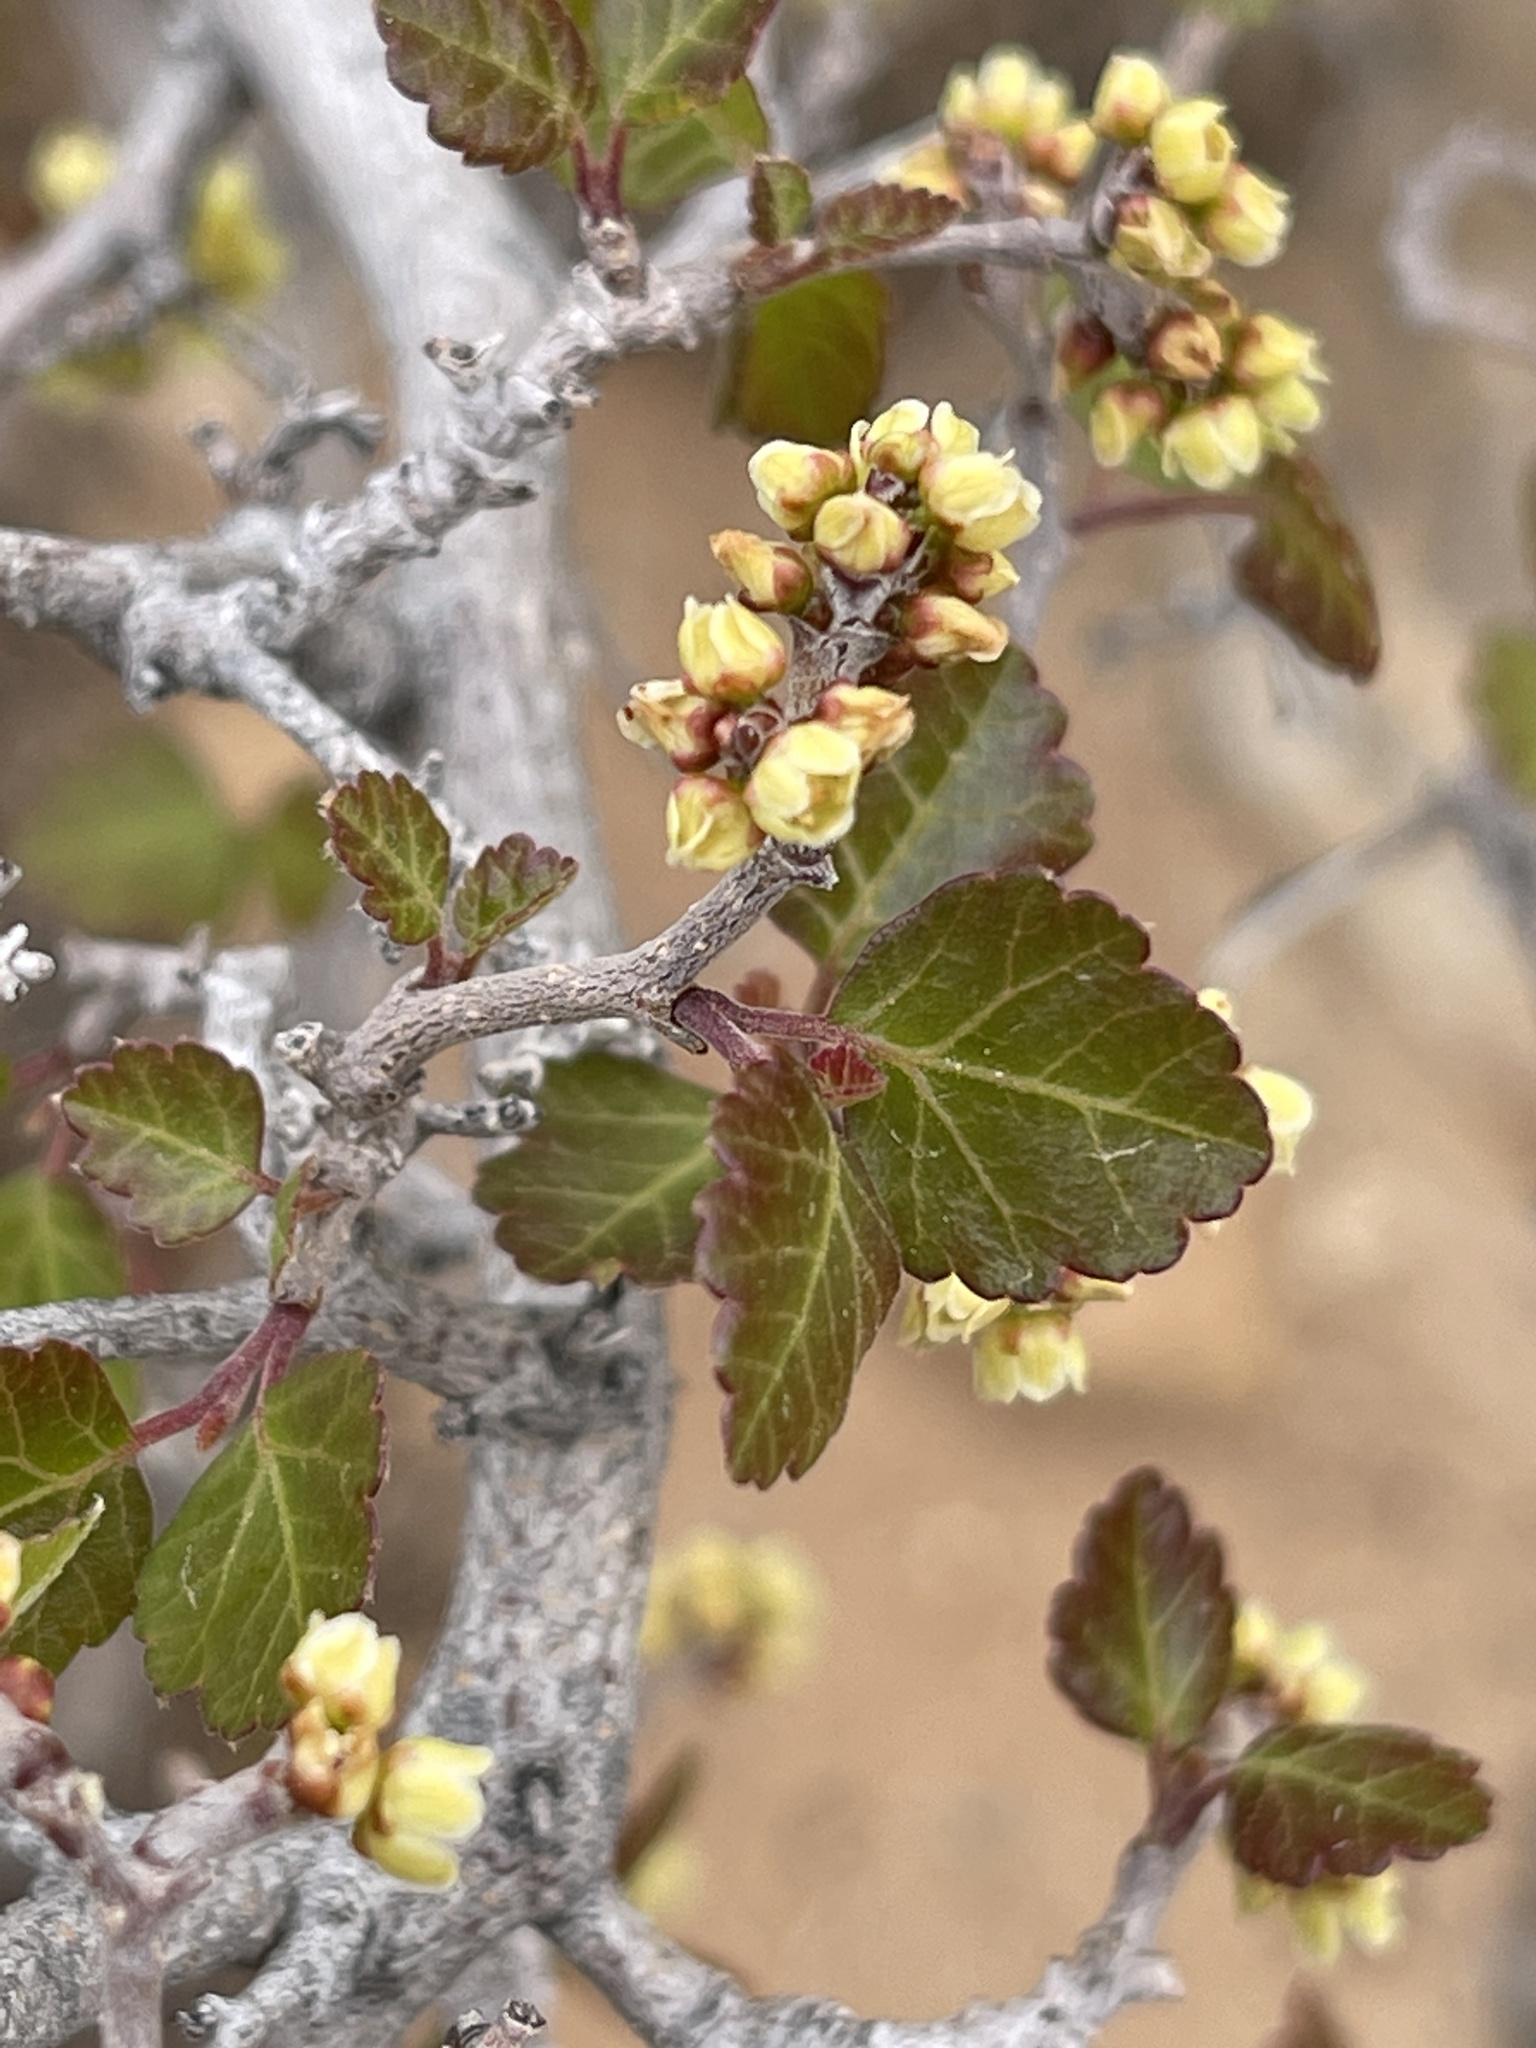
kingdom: Plantae
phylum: Tracheophyta
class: Magnoliopsida
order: Sapindales
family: Anacardiaceae
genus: Rhus
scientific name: Rhus aromatica
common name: Aromatic sumac
